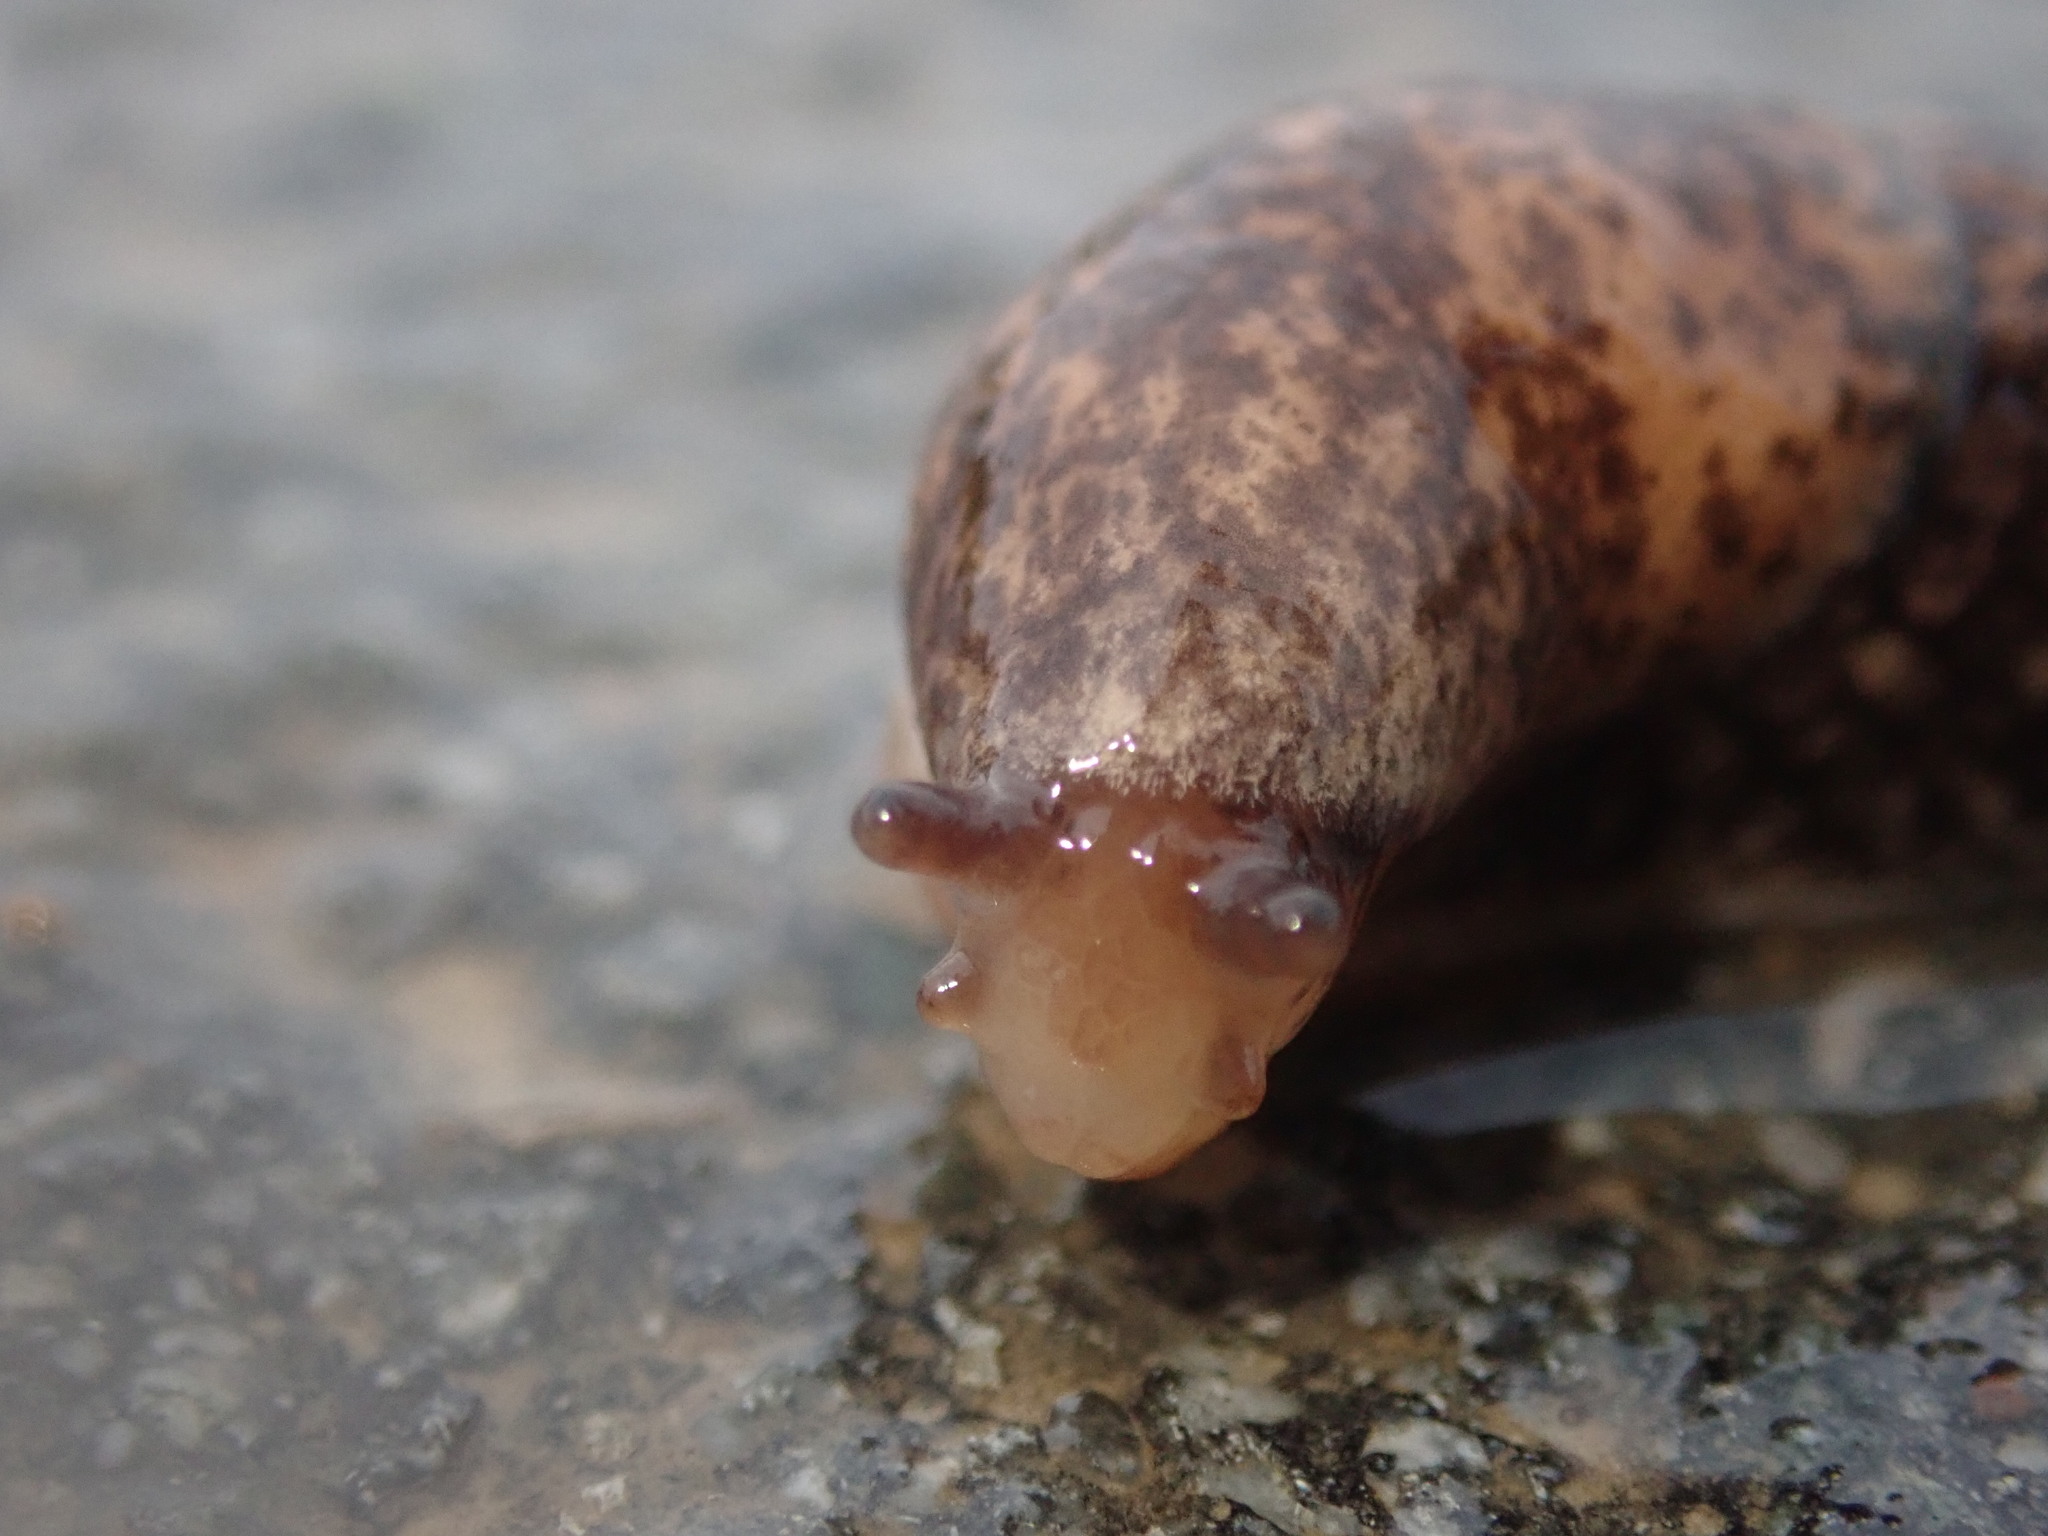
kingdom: Animalia
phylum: Mollusca
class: Gastropoda
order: Stylommatophora
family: Agriolimacidae
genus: Deroceras
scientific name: Deroceras reticulatum
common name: Gray field slug
